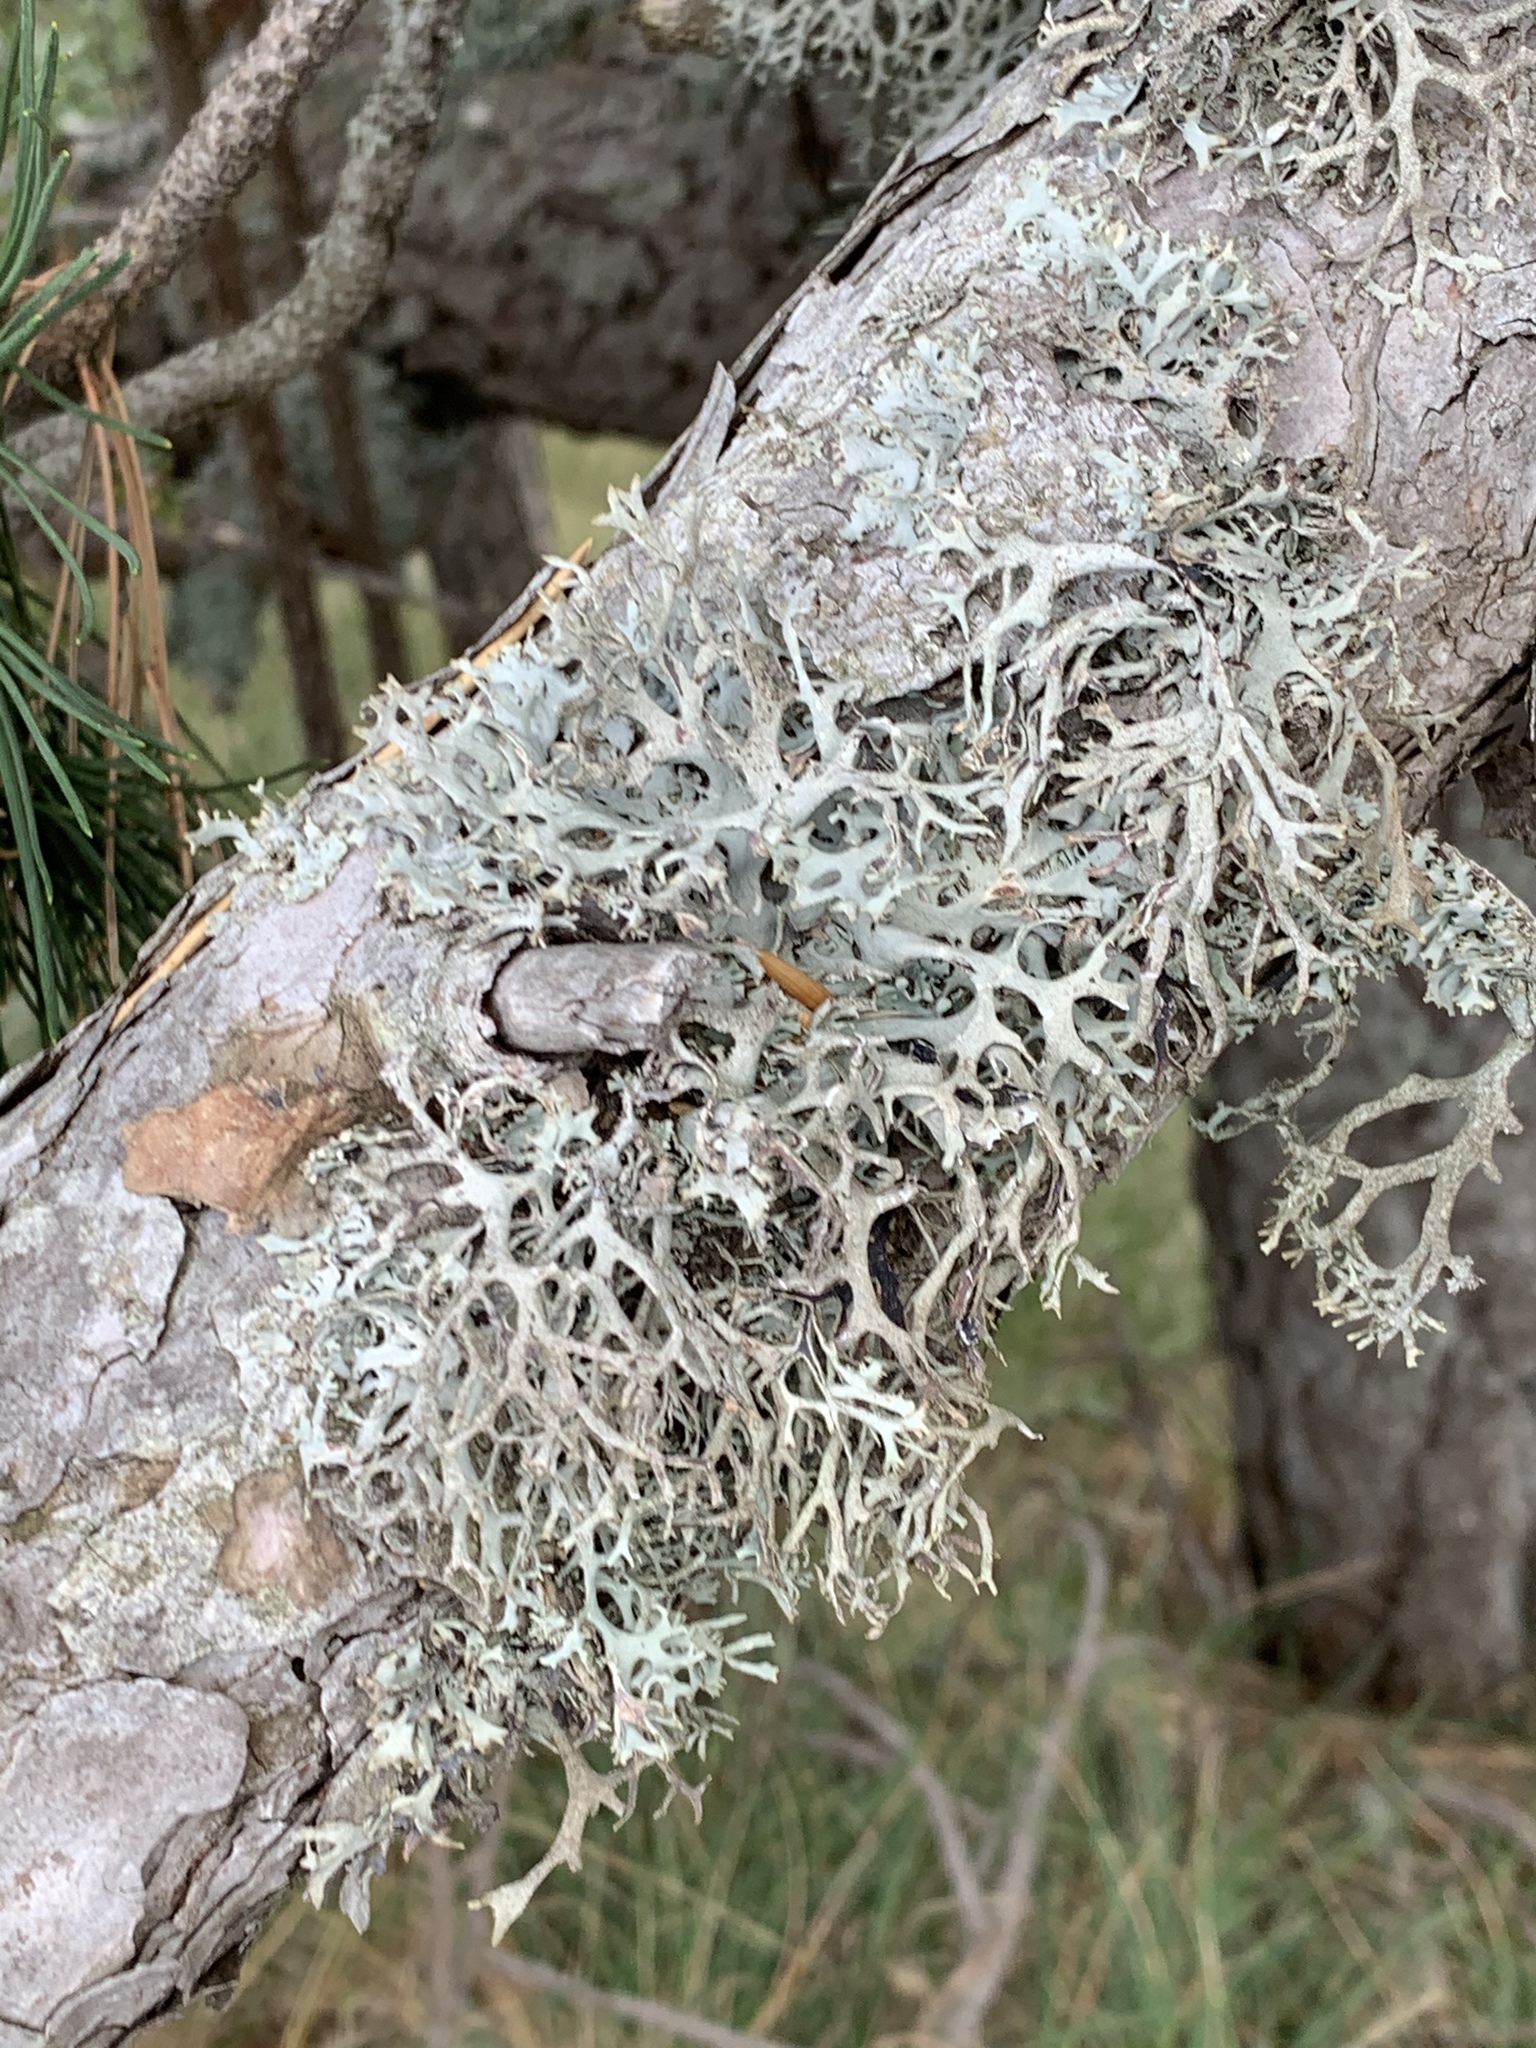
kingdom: Fungi
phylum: Ascomycota
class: Lecanoromycetes
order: Lecanorales
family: Parmeliaceae
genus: Pseudevernia
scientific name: Pseudevernia furfuracea
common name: Tree moss
